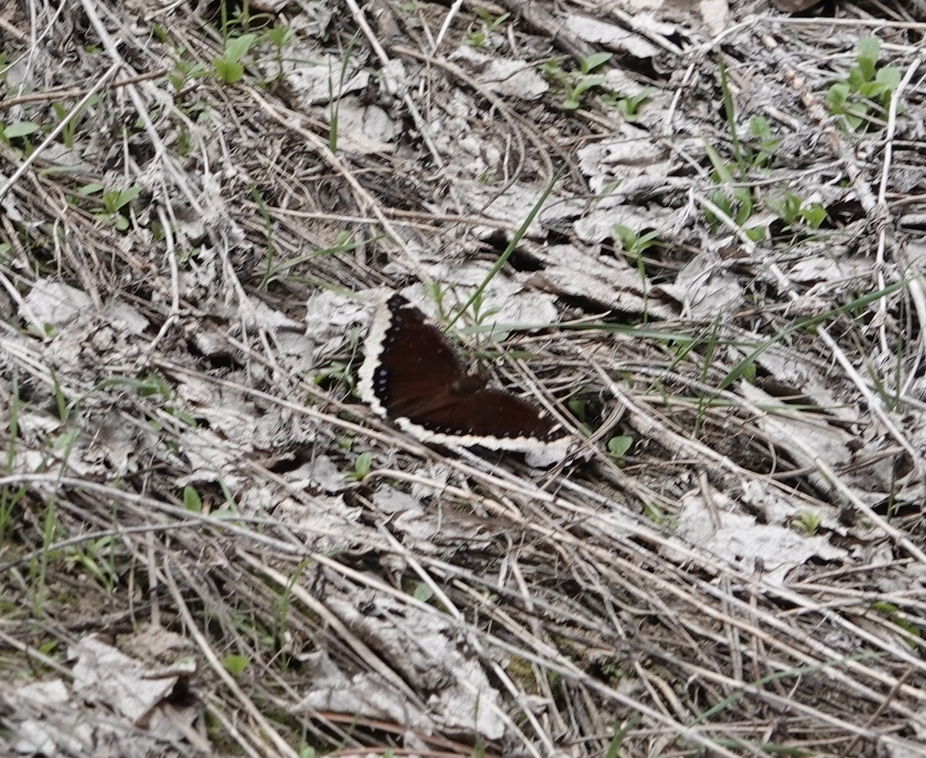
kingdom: Animalia
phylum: Arthropoda
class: Insecta
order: Lepidoptera
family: Nymphalidae
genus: Nymphalis
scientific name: Nymphalis antiopa
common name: Camberwell beauty
